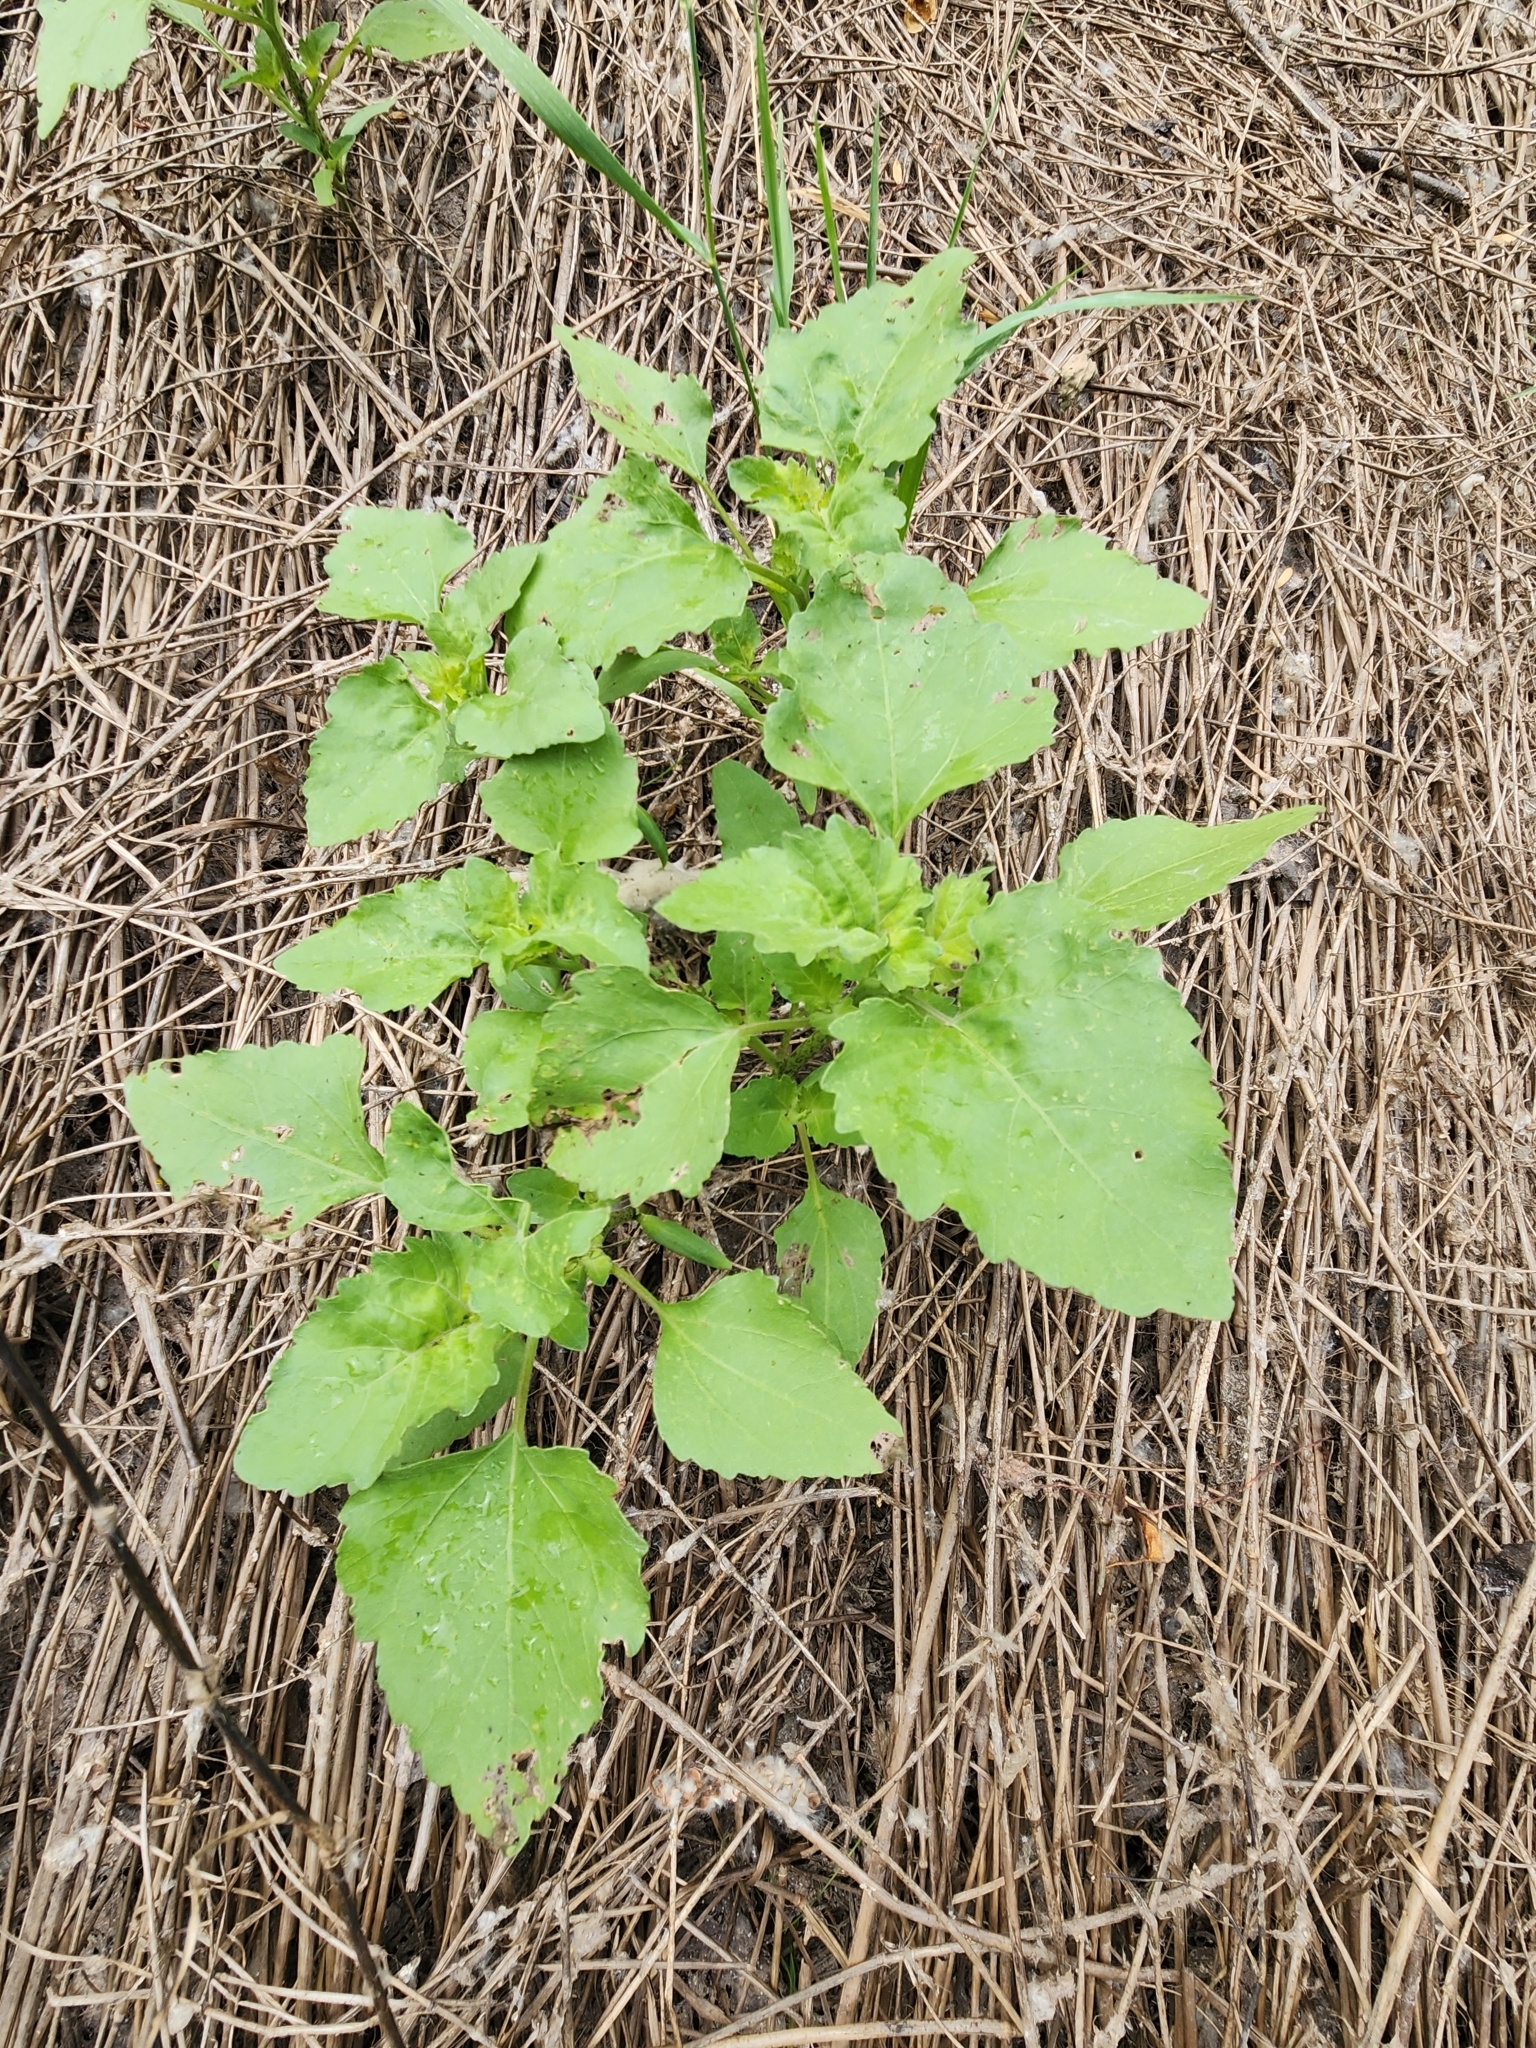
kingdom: Plantae
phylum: Tracheophyta
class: Magnoliopsida
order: Asterales
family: Asteraceae
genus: Xanthium
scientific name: Xanthium strumarium
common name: Rough cocklebur
